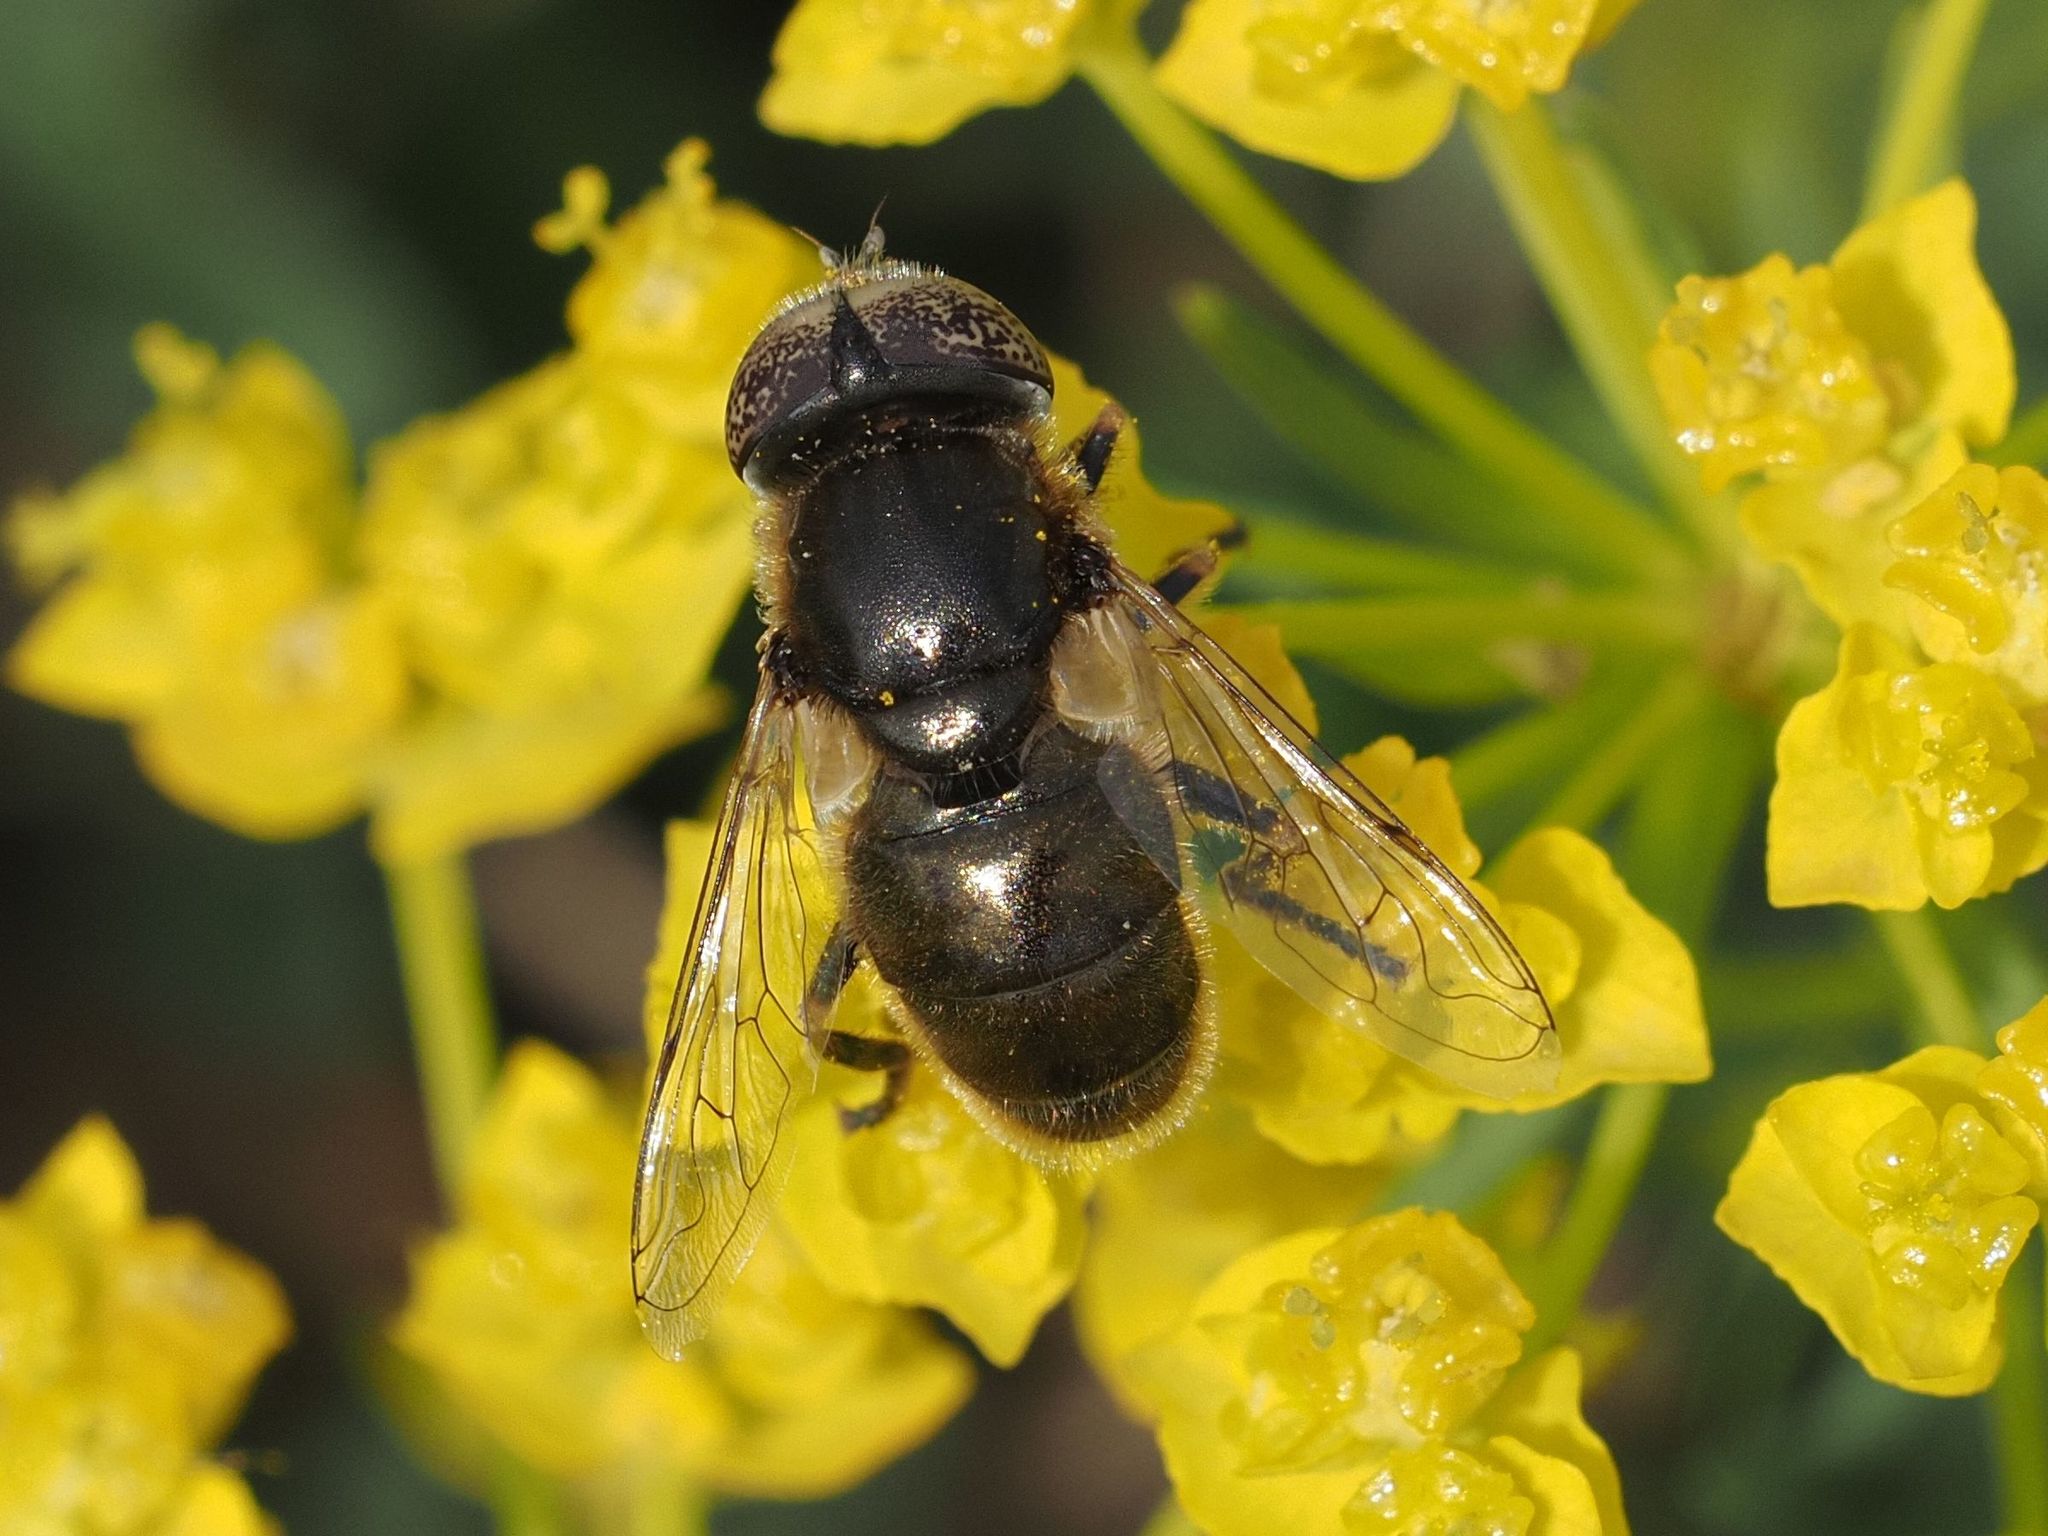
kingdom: Animalia
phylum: Arthropoda
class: Insecta
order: Diptera
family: Syrphidae
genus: Eristalinus
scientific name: Eristalinus aeneus
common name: Syrphid fly
